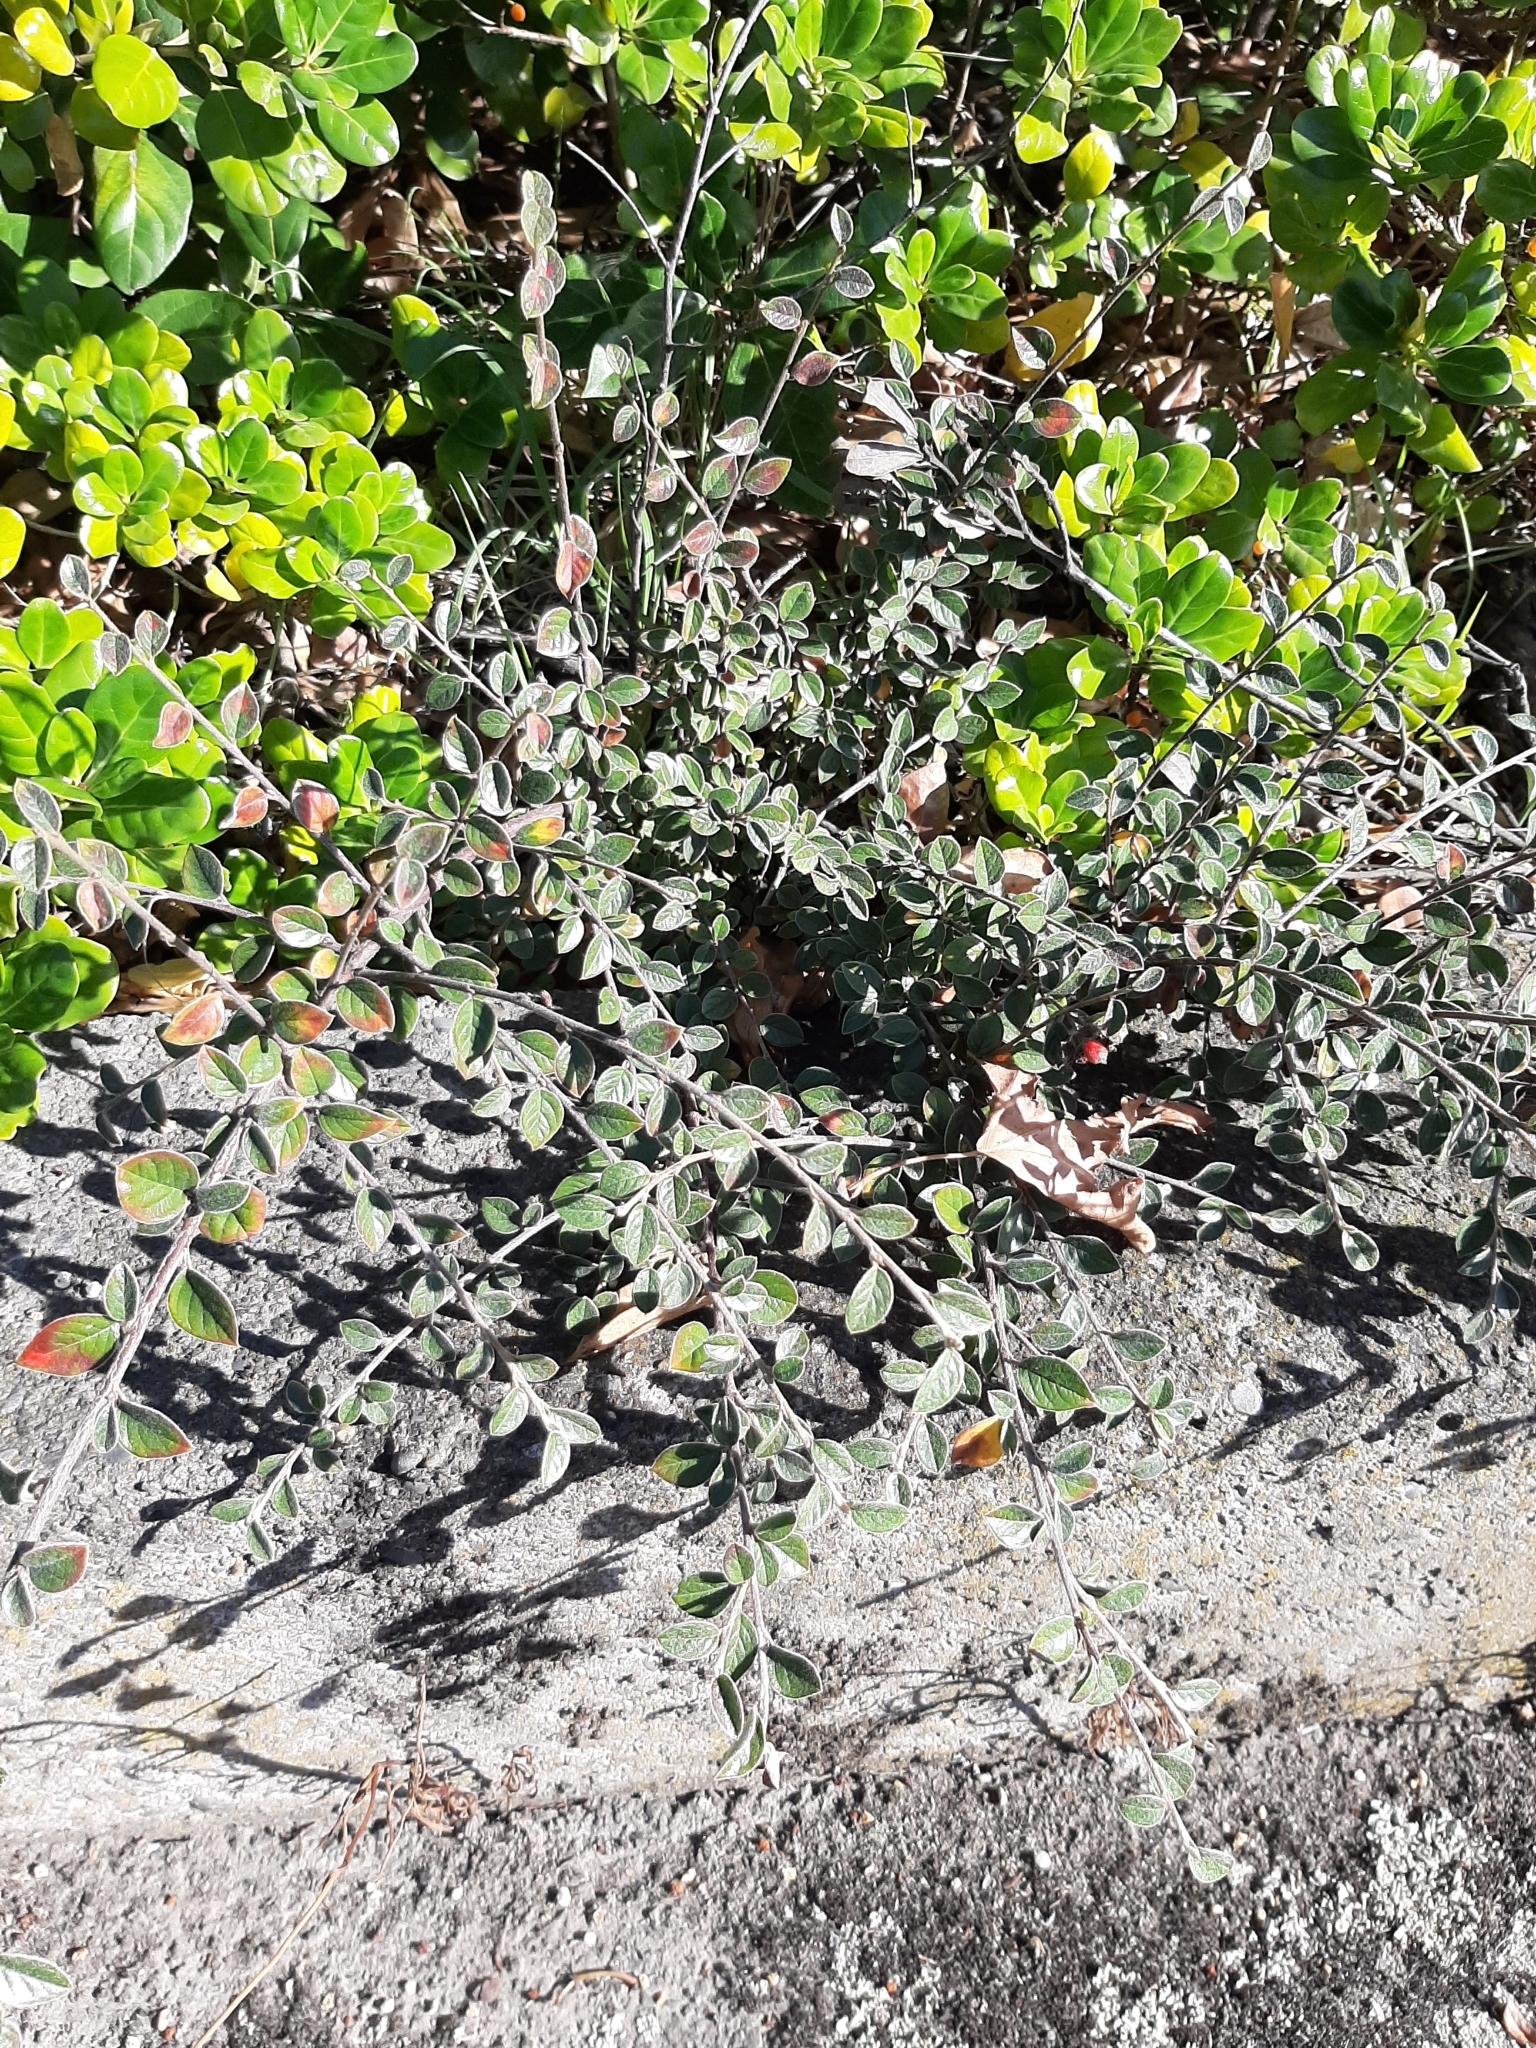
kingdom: Plantae
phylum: Tracheophyta
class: Magnoliopsida
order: Rosales
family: Rosaceae
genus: Cotoneaster
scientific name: Cotoneaster franchetii
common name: Franchet's cotoneaster
